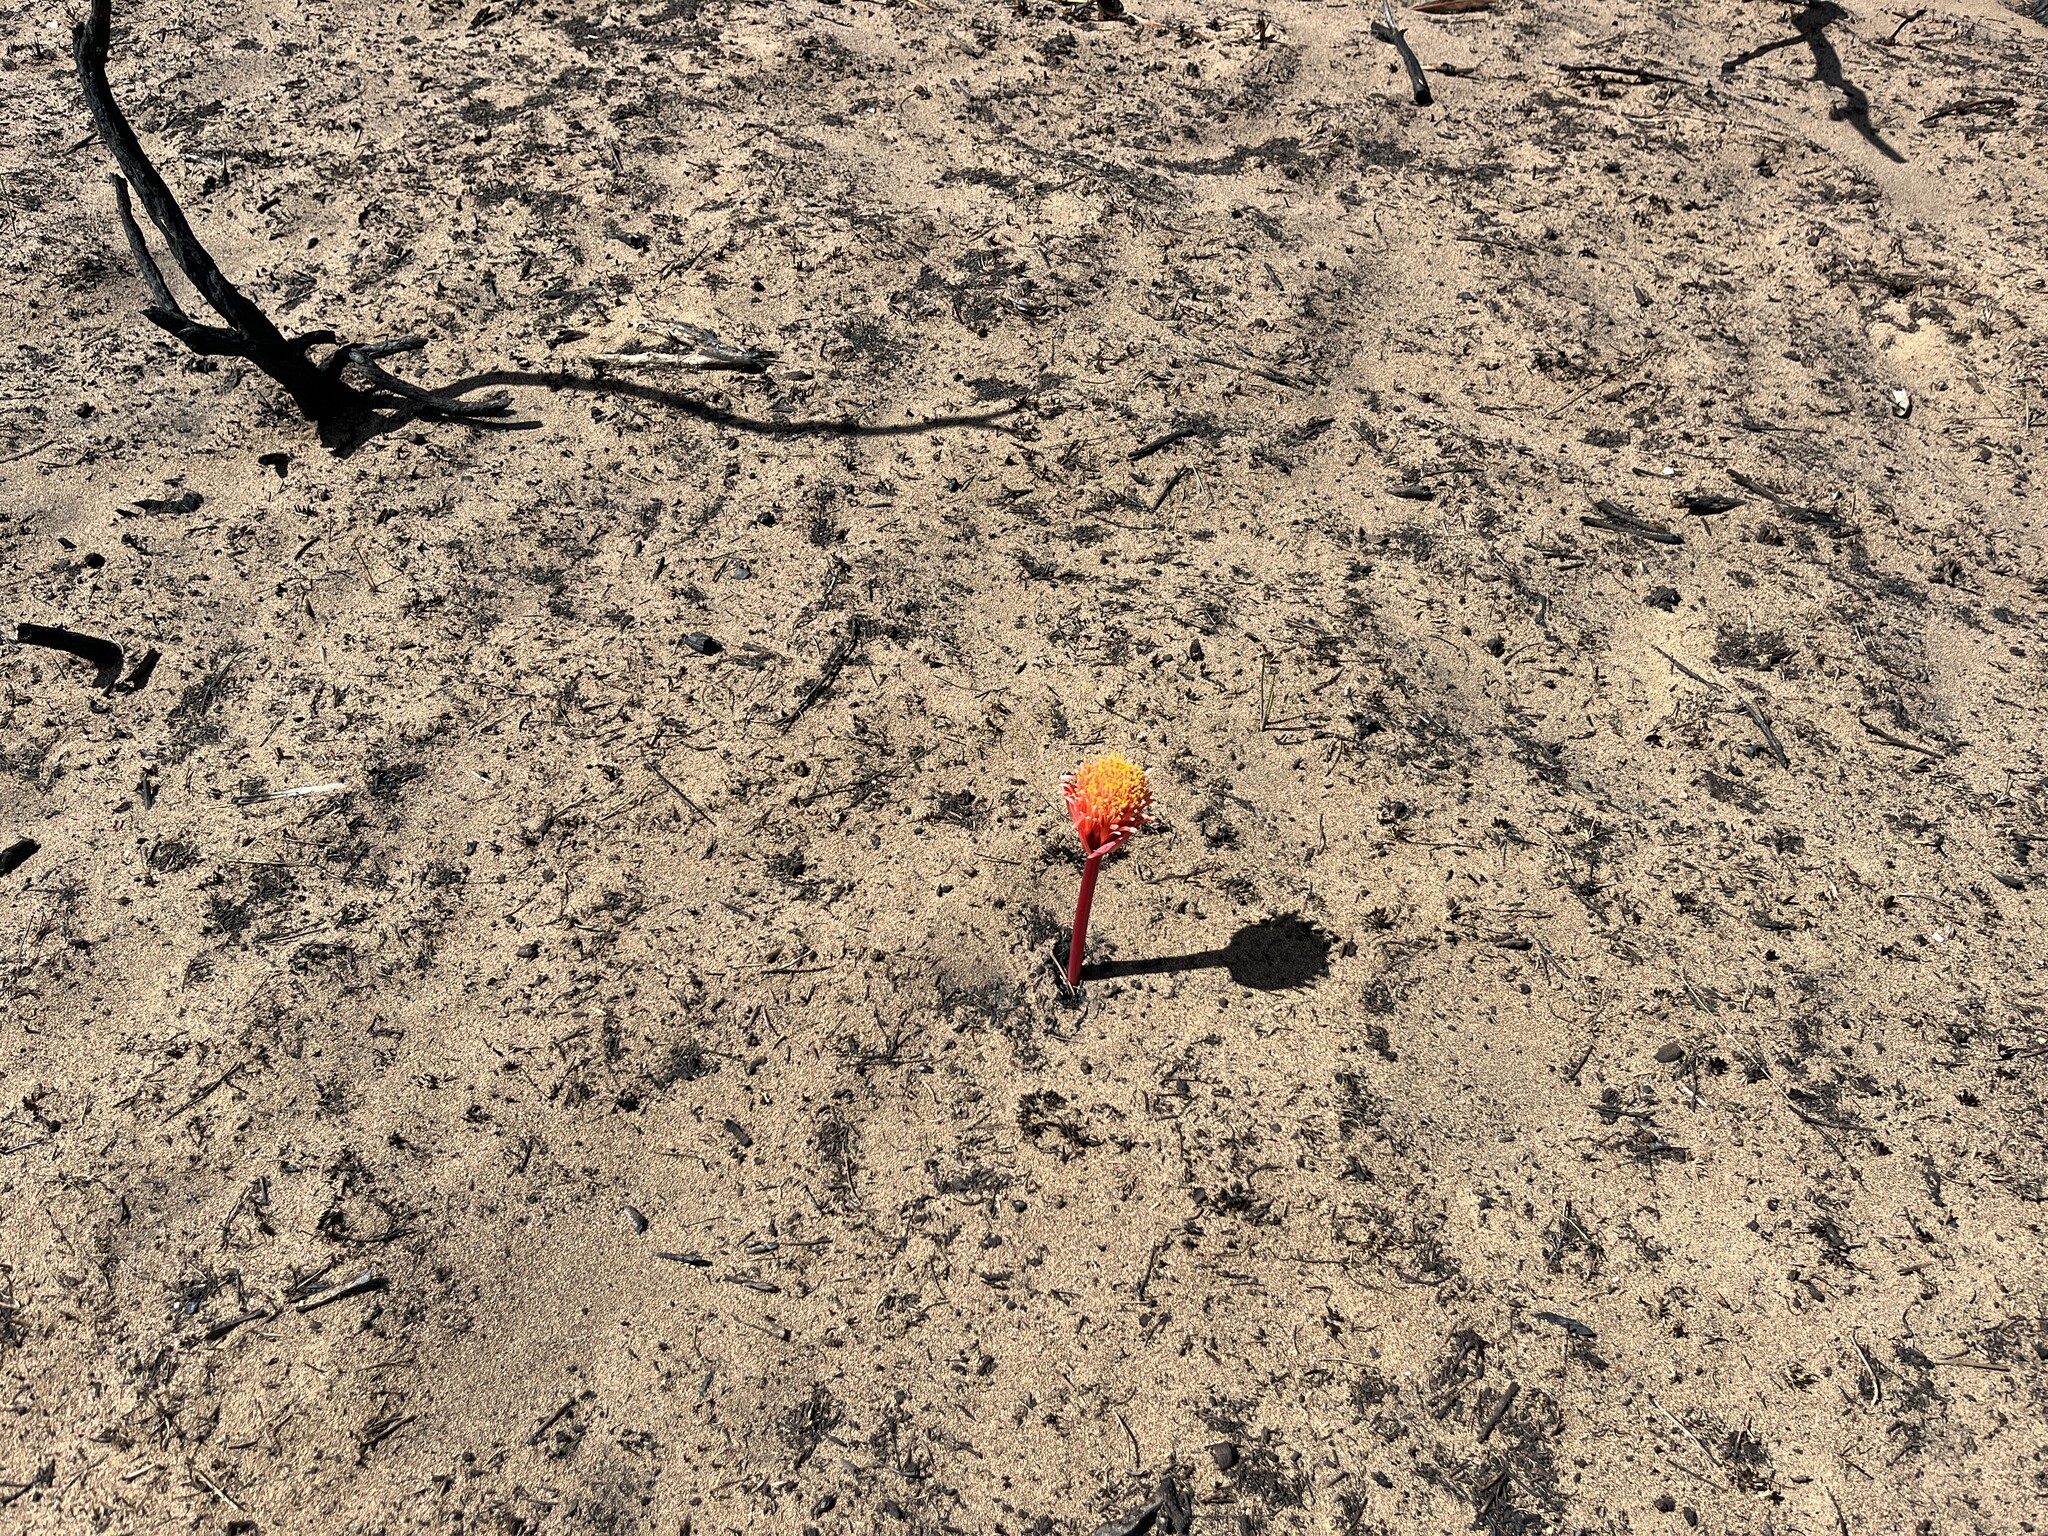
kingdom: Plantae
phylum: Tracheophyta
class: Liliopsida
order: Asparagales
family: Amaryllidaceae
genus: Haemanthus
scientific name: Haemanthus sanguineus
